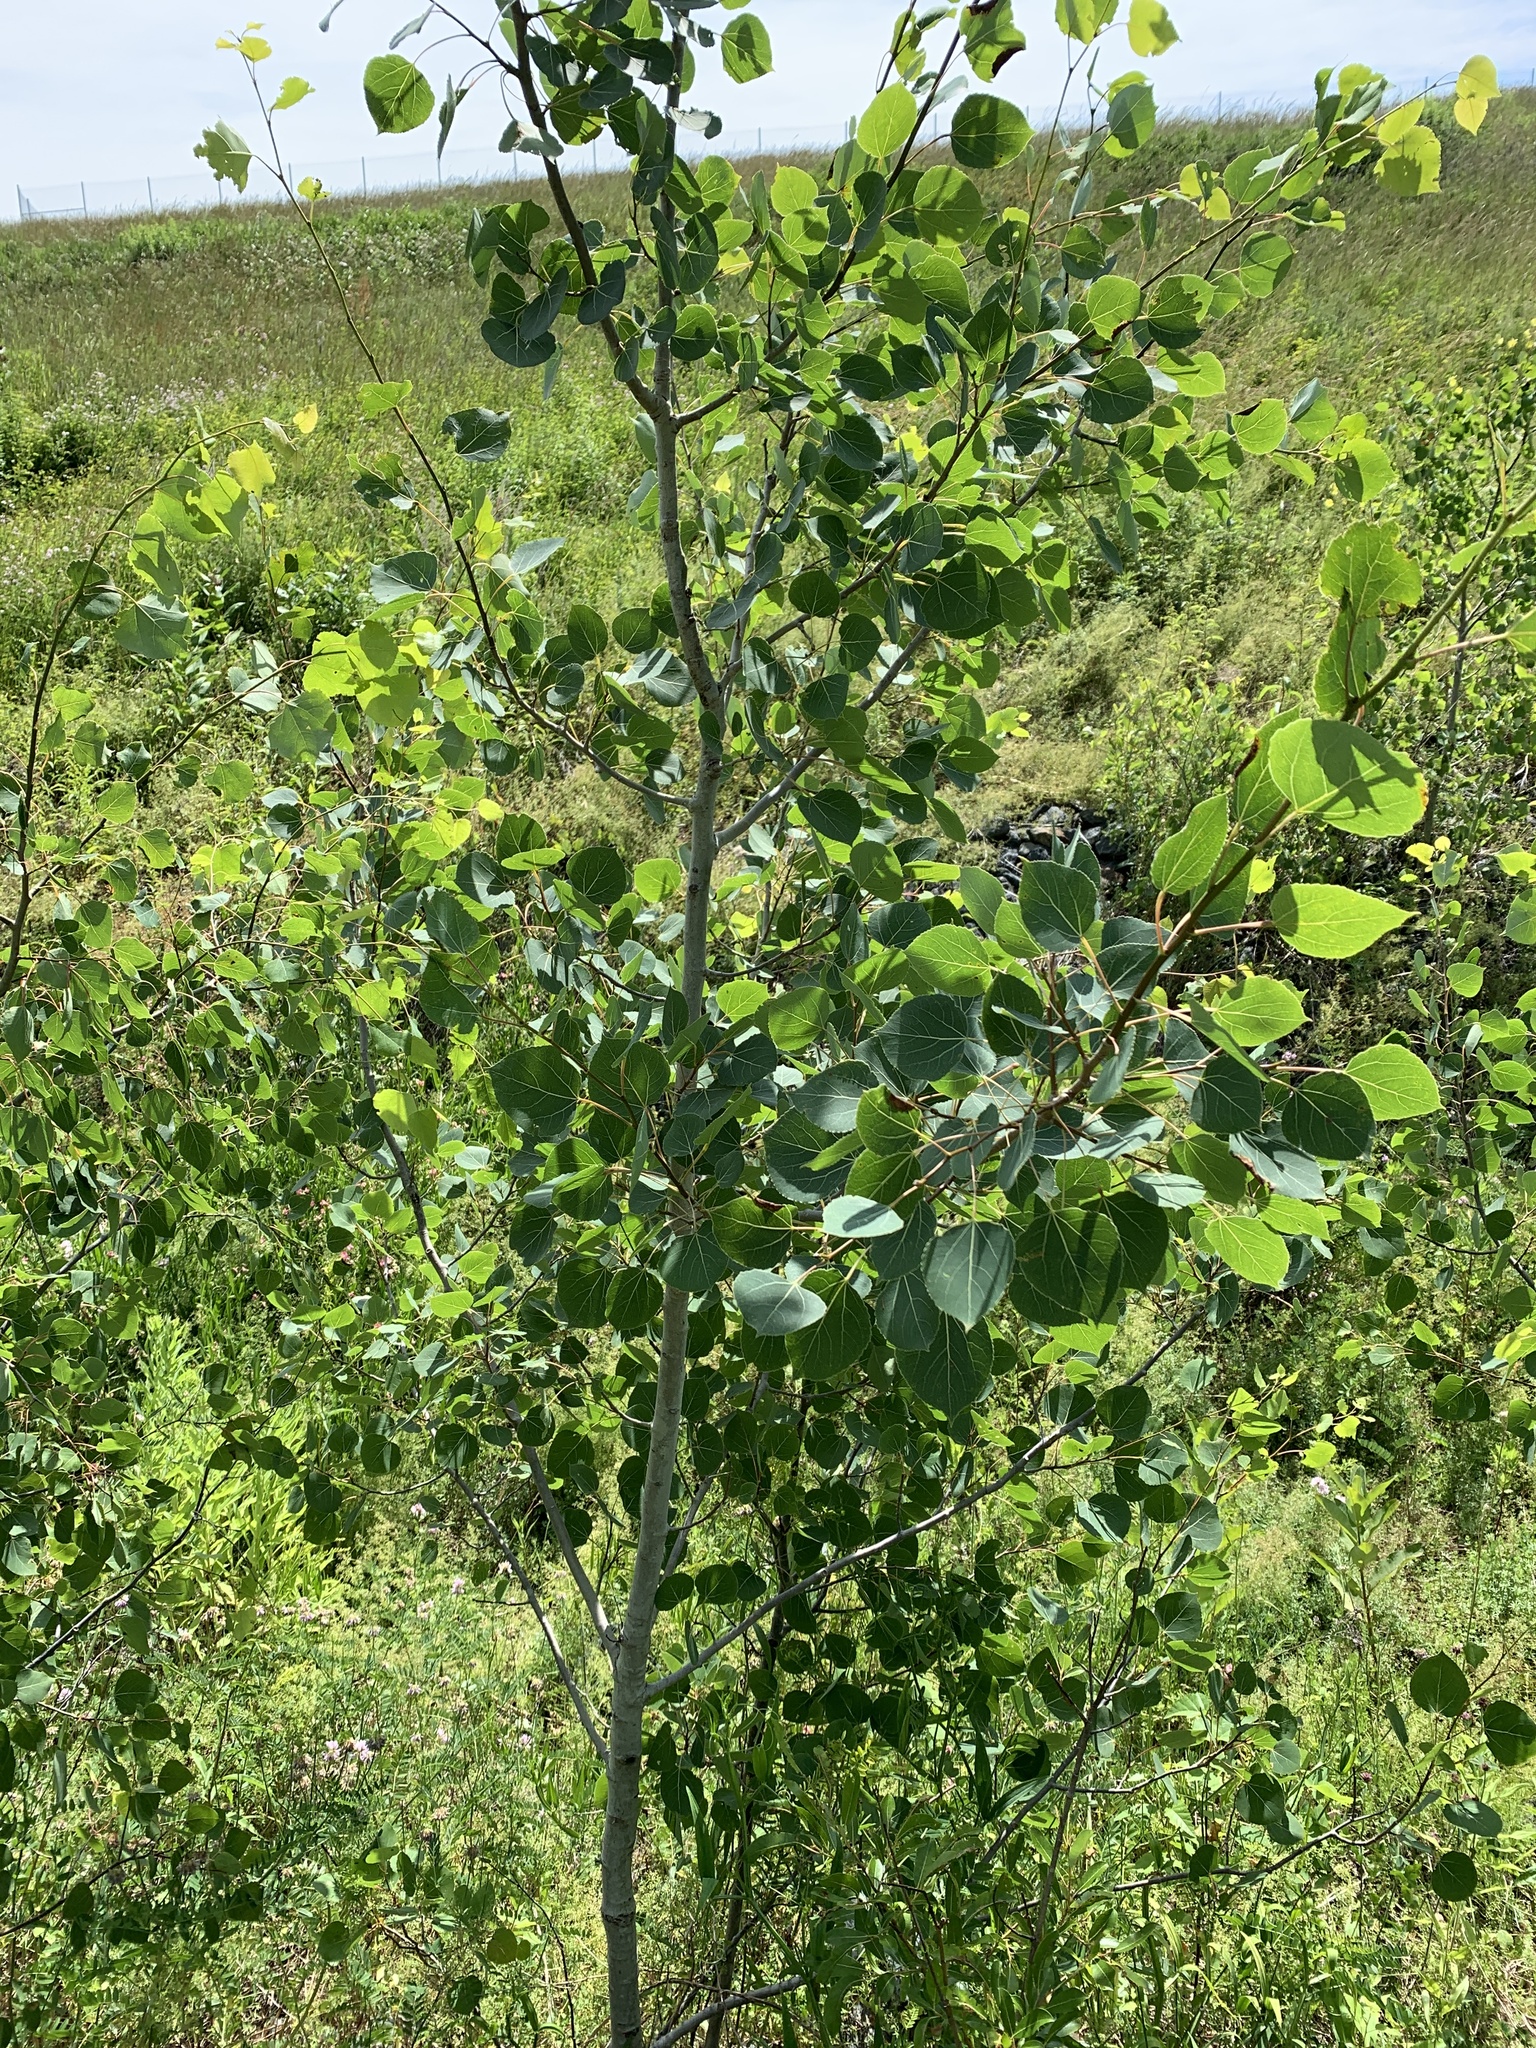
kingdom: Plantae
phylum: Tracheophyta
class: Magnoliopsida
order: Malpighiales
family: Salicaceae
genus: Populus
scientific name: Populus tremuloides
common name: Quaking aspen
